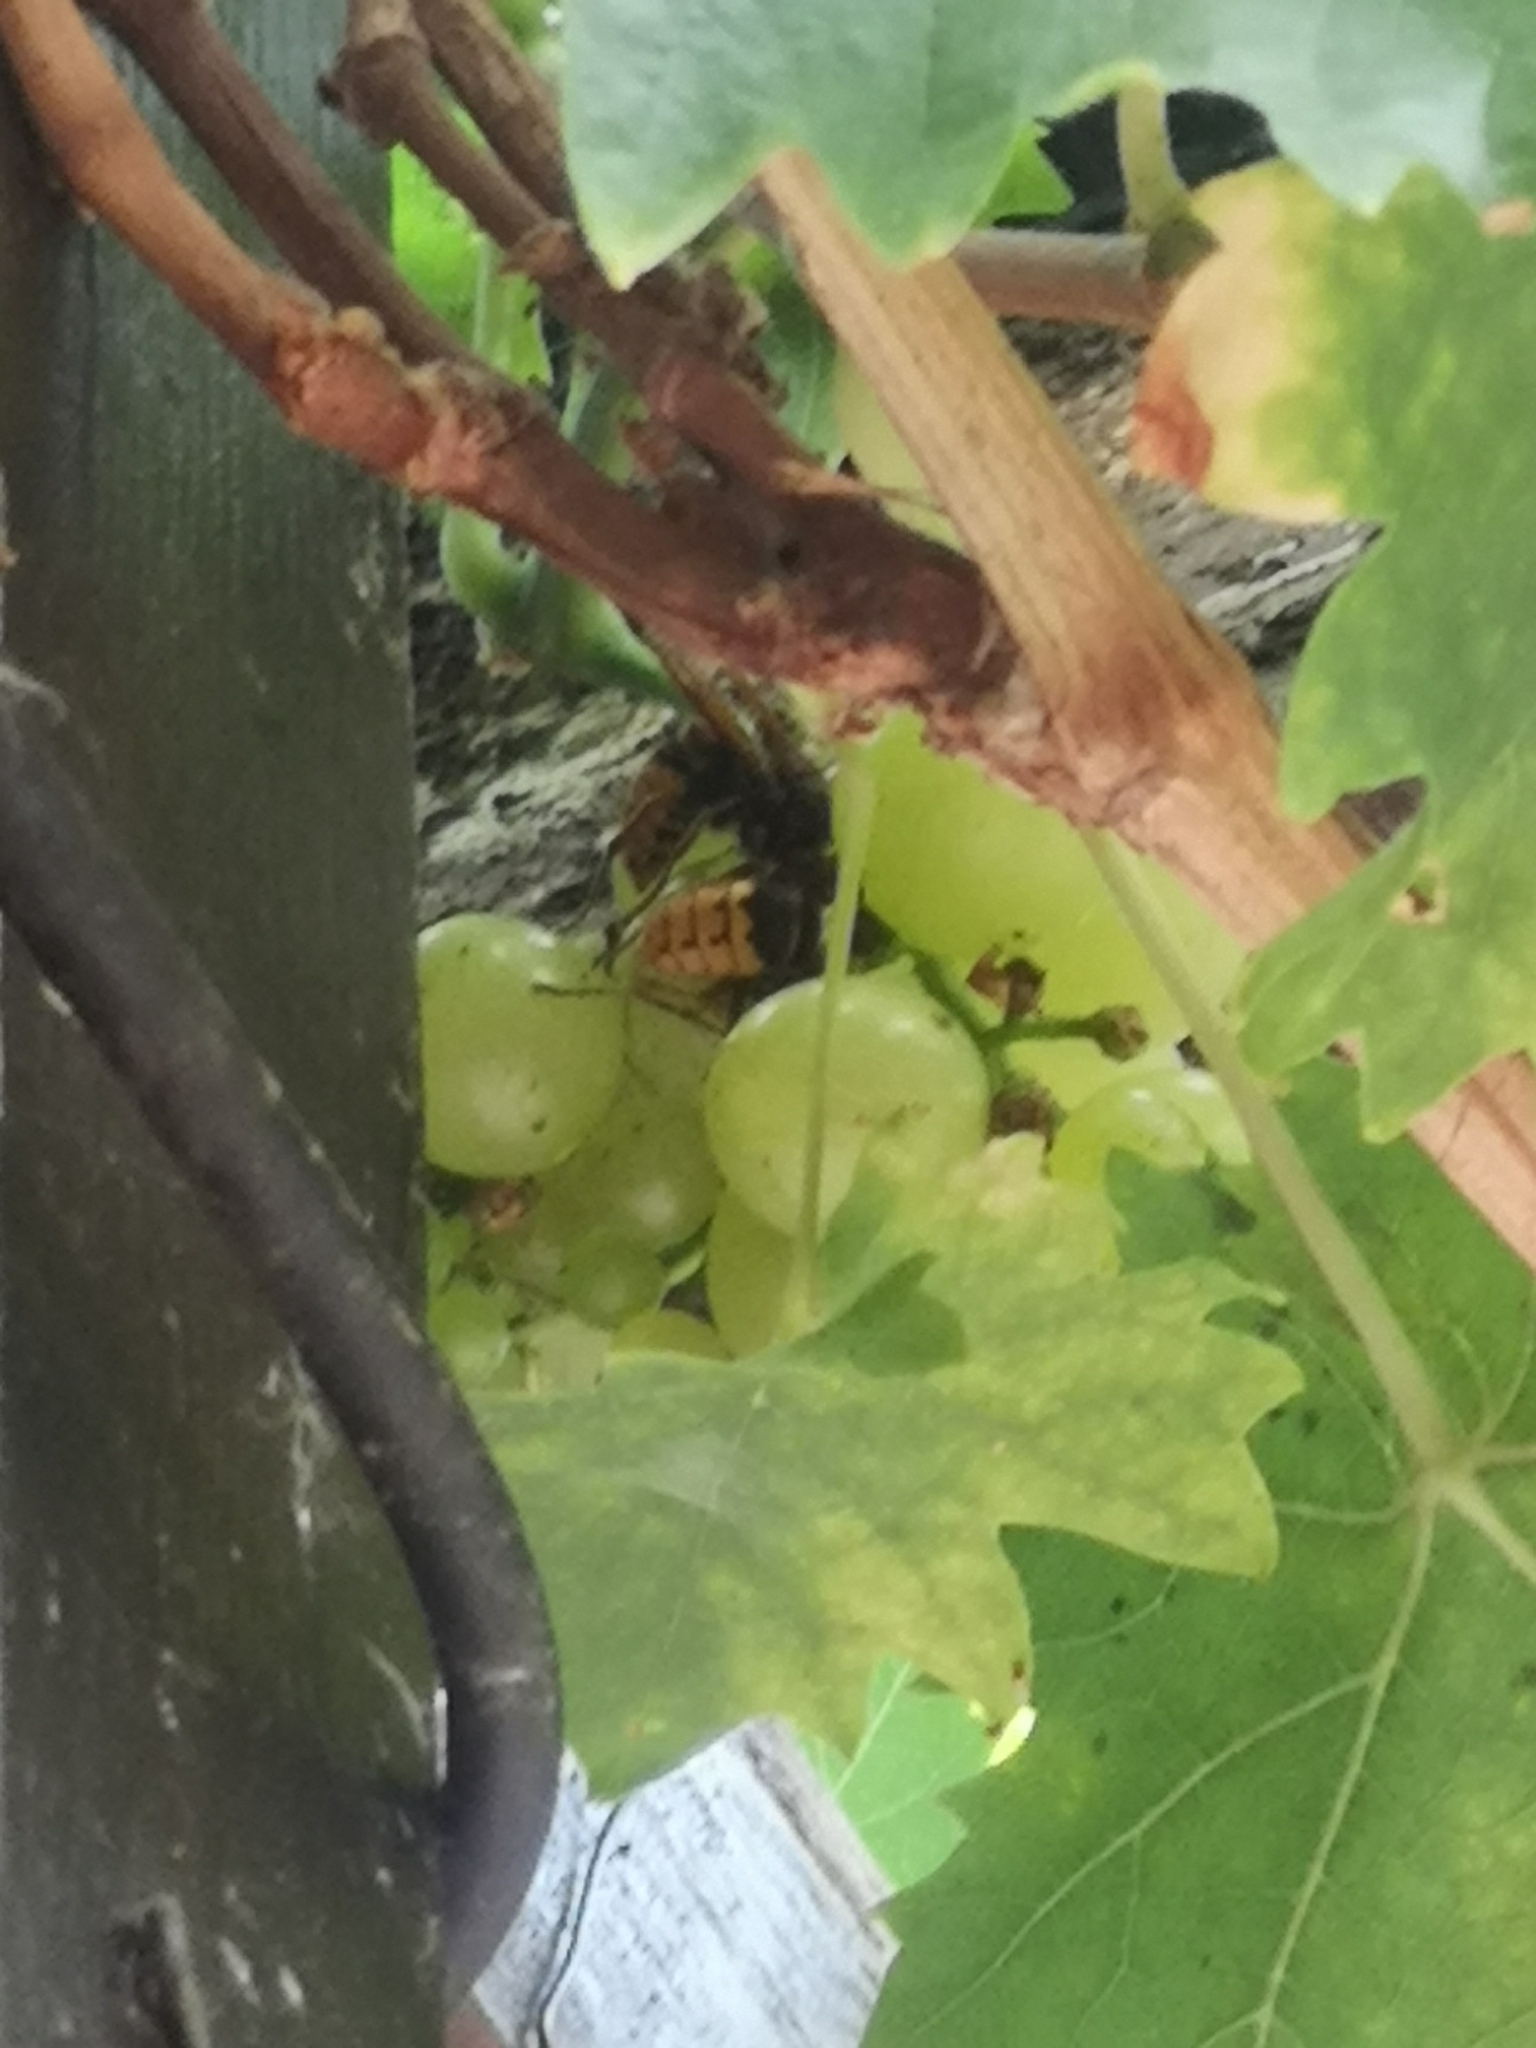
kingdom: Animalia
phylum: Arthropoda
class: Insecta
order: Hymenoptera
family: Vespidae
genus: Vespa
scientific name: Vespa crabro
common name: Hornet
